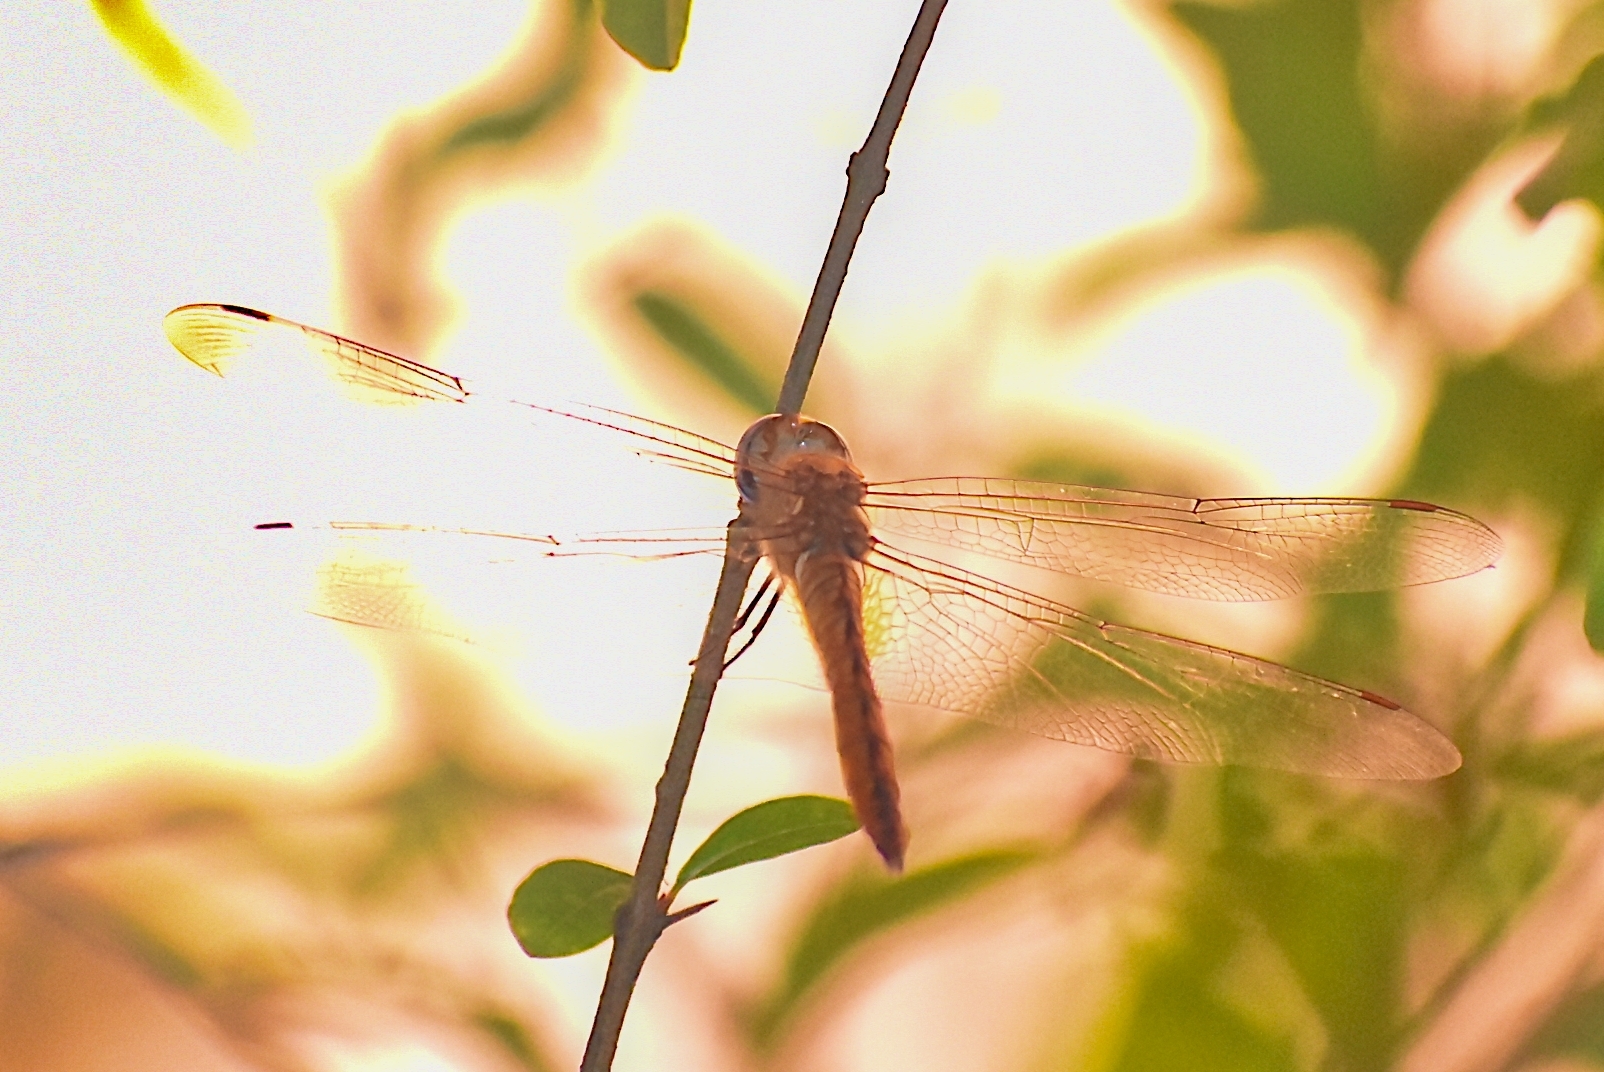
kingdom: Animalia
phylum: Arthropoda
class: Insecta
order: Odonata
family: Libellulidae
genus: Pantala
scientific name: Pantala flavescens
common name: Wandering glider
